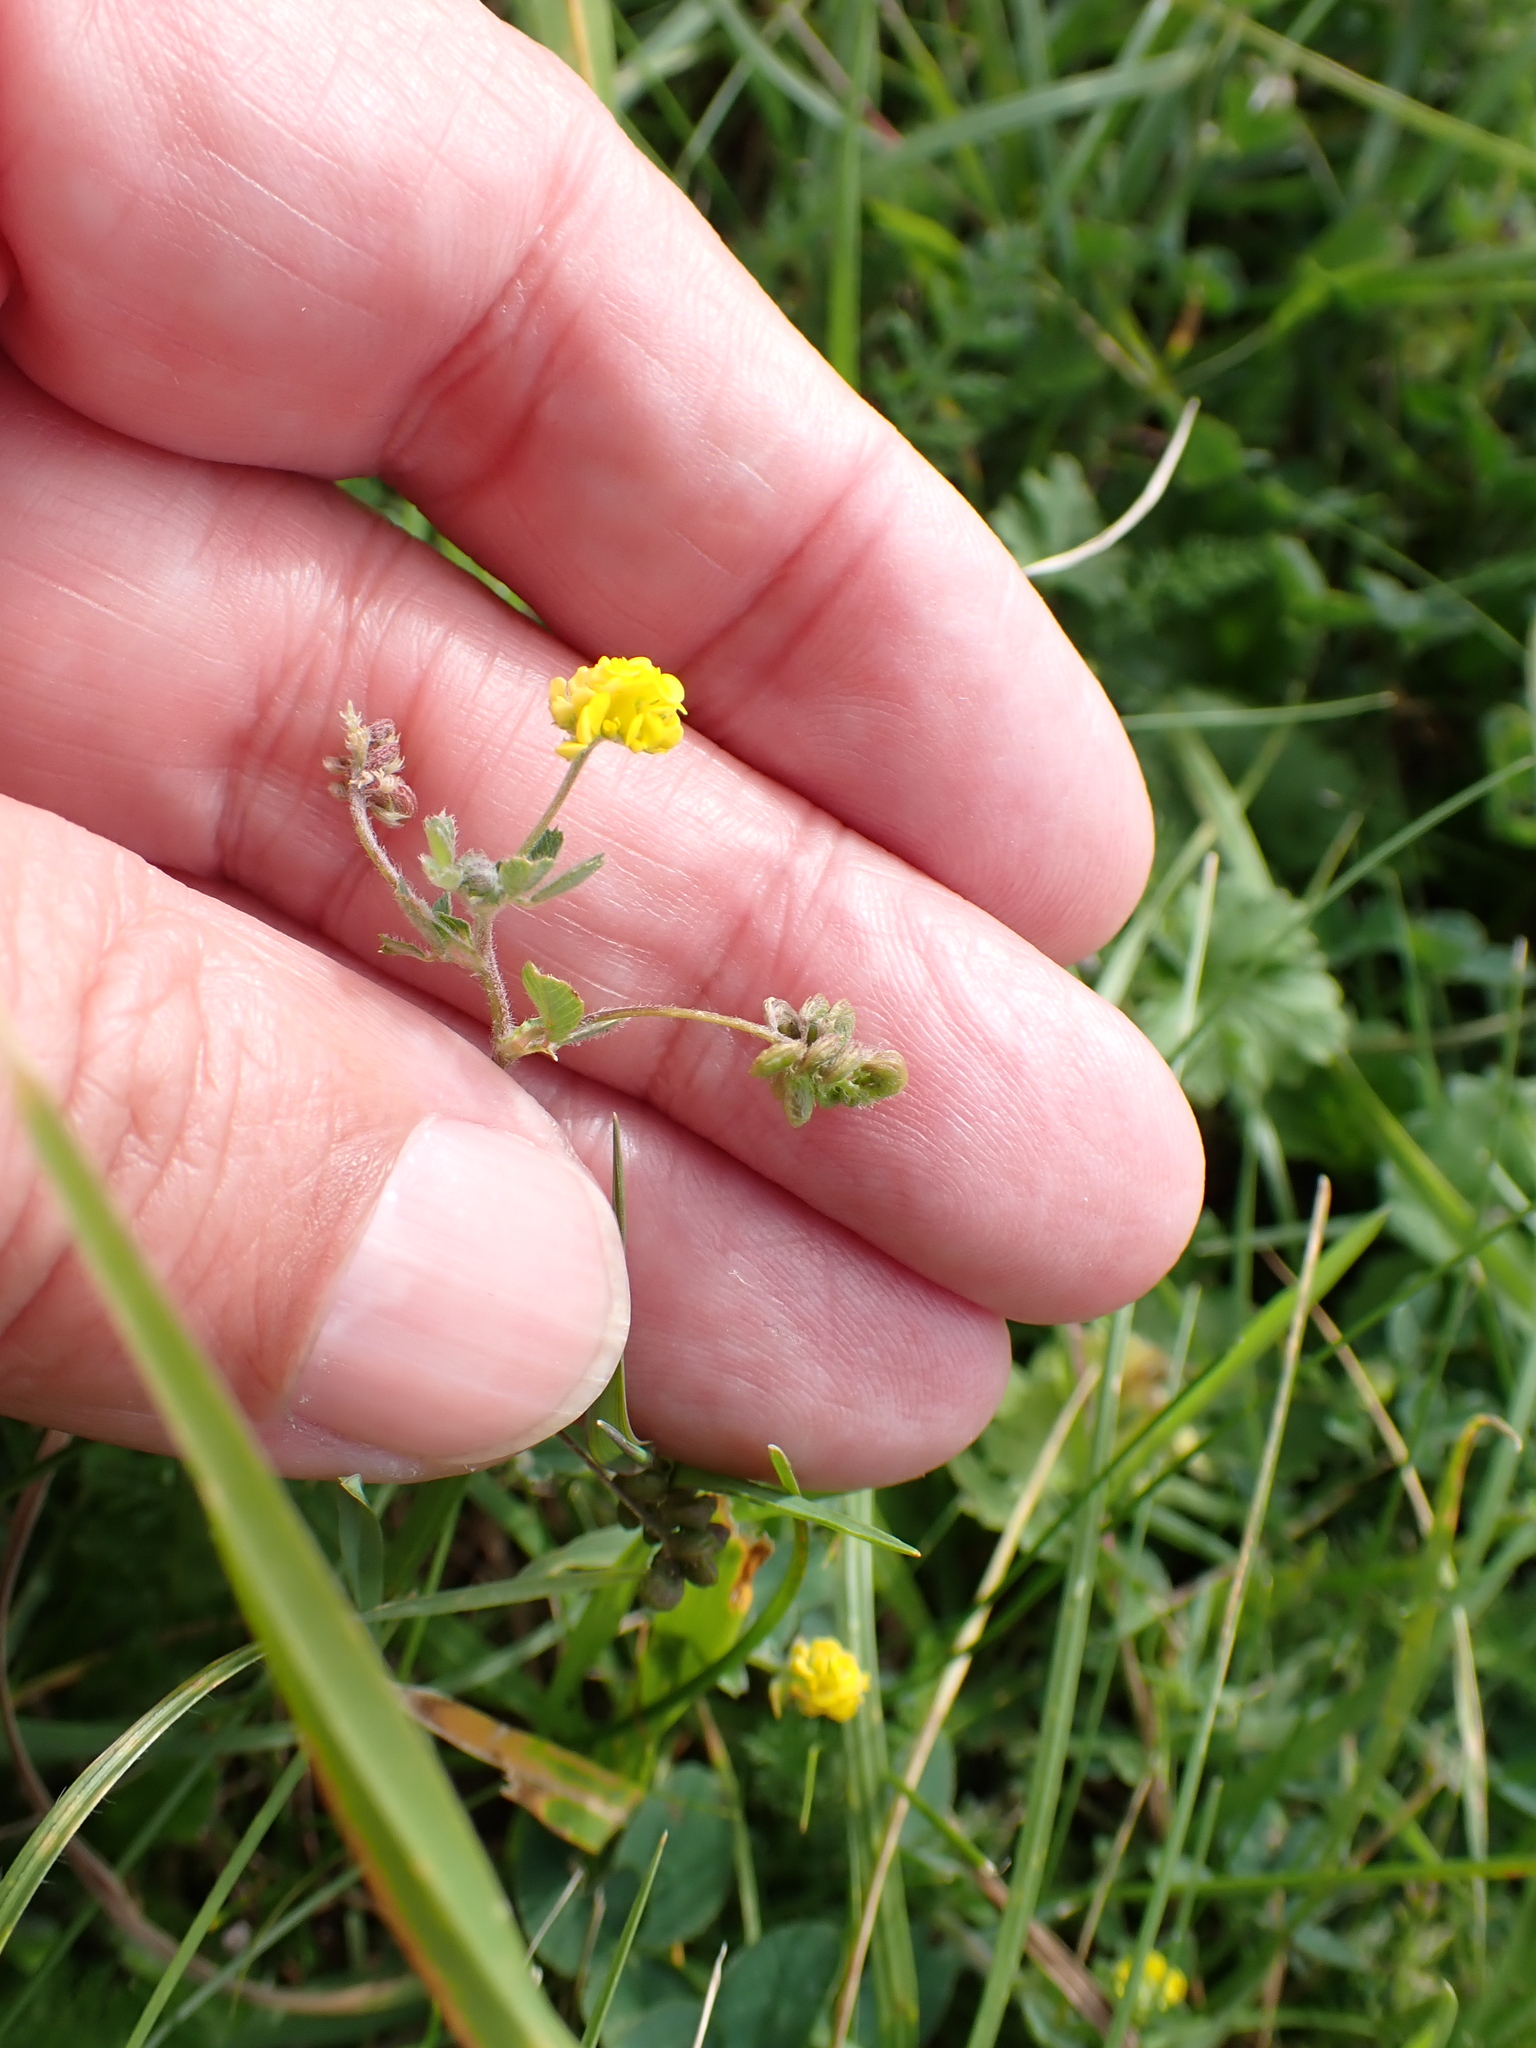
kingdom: Plantae
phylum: Tracheophyta
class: Magnoliopsida
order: Fabales
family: Fabaceae
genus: Medicago
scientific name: Medicago lupulina
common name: Black medick
